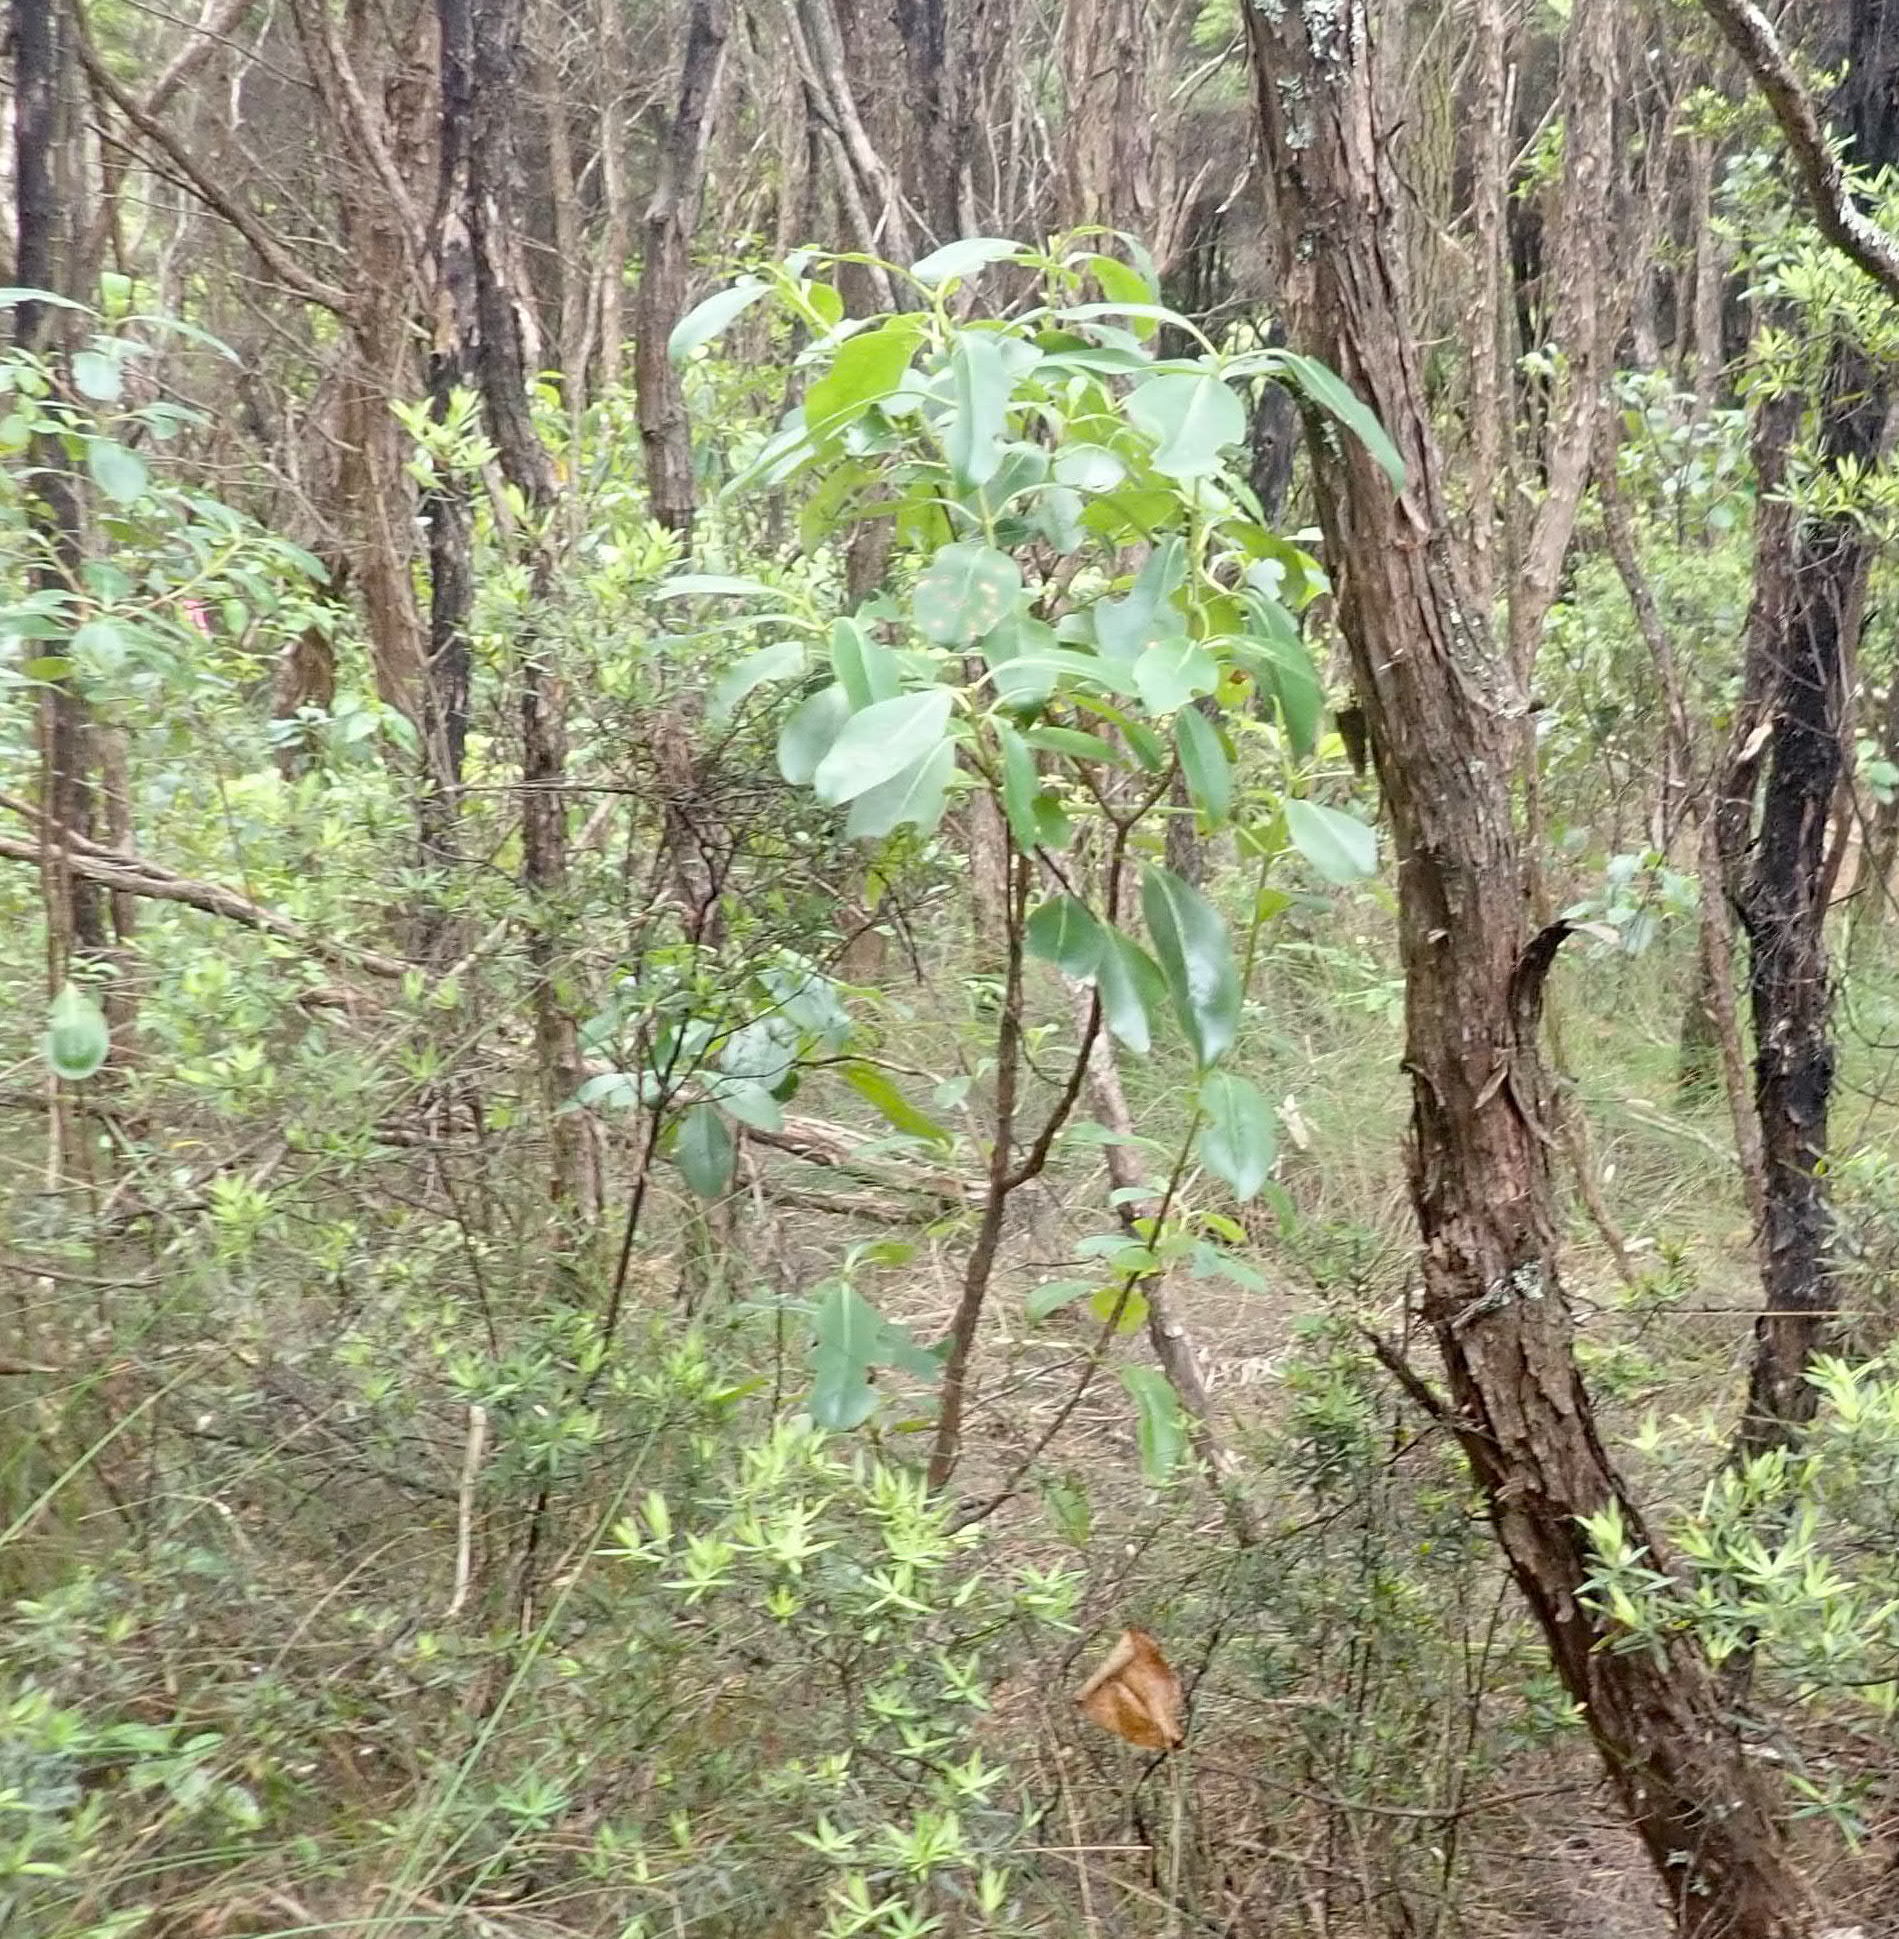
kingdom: Plantae
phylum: Tracheophyta
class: Magnoliopsida
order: Gentianales
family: Rubiaceae
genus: Coprosma
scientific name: Coprosma lucida
